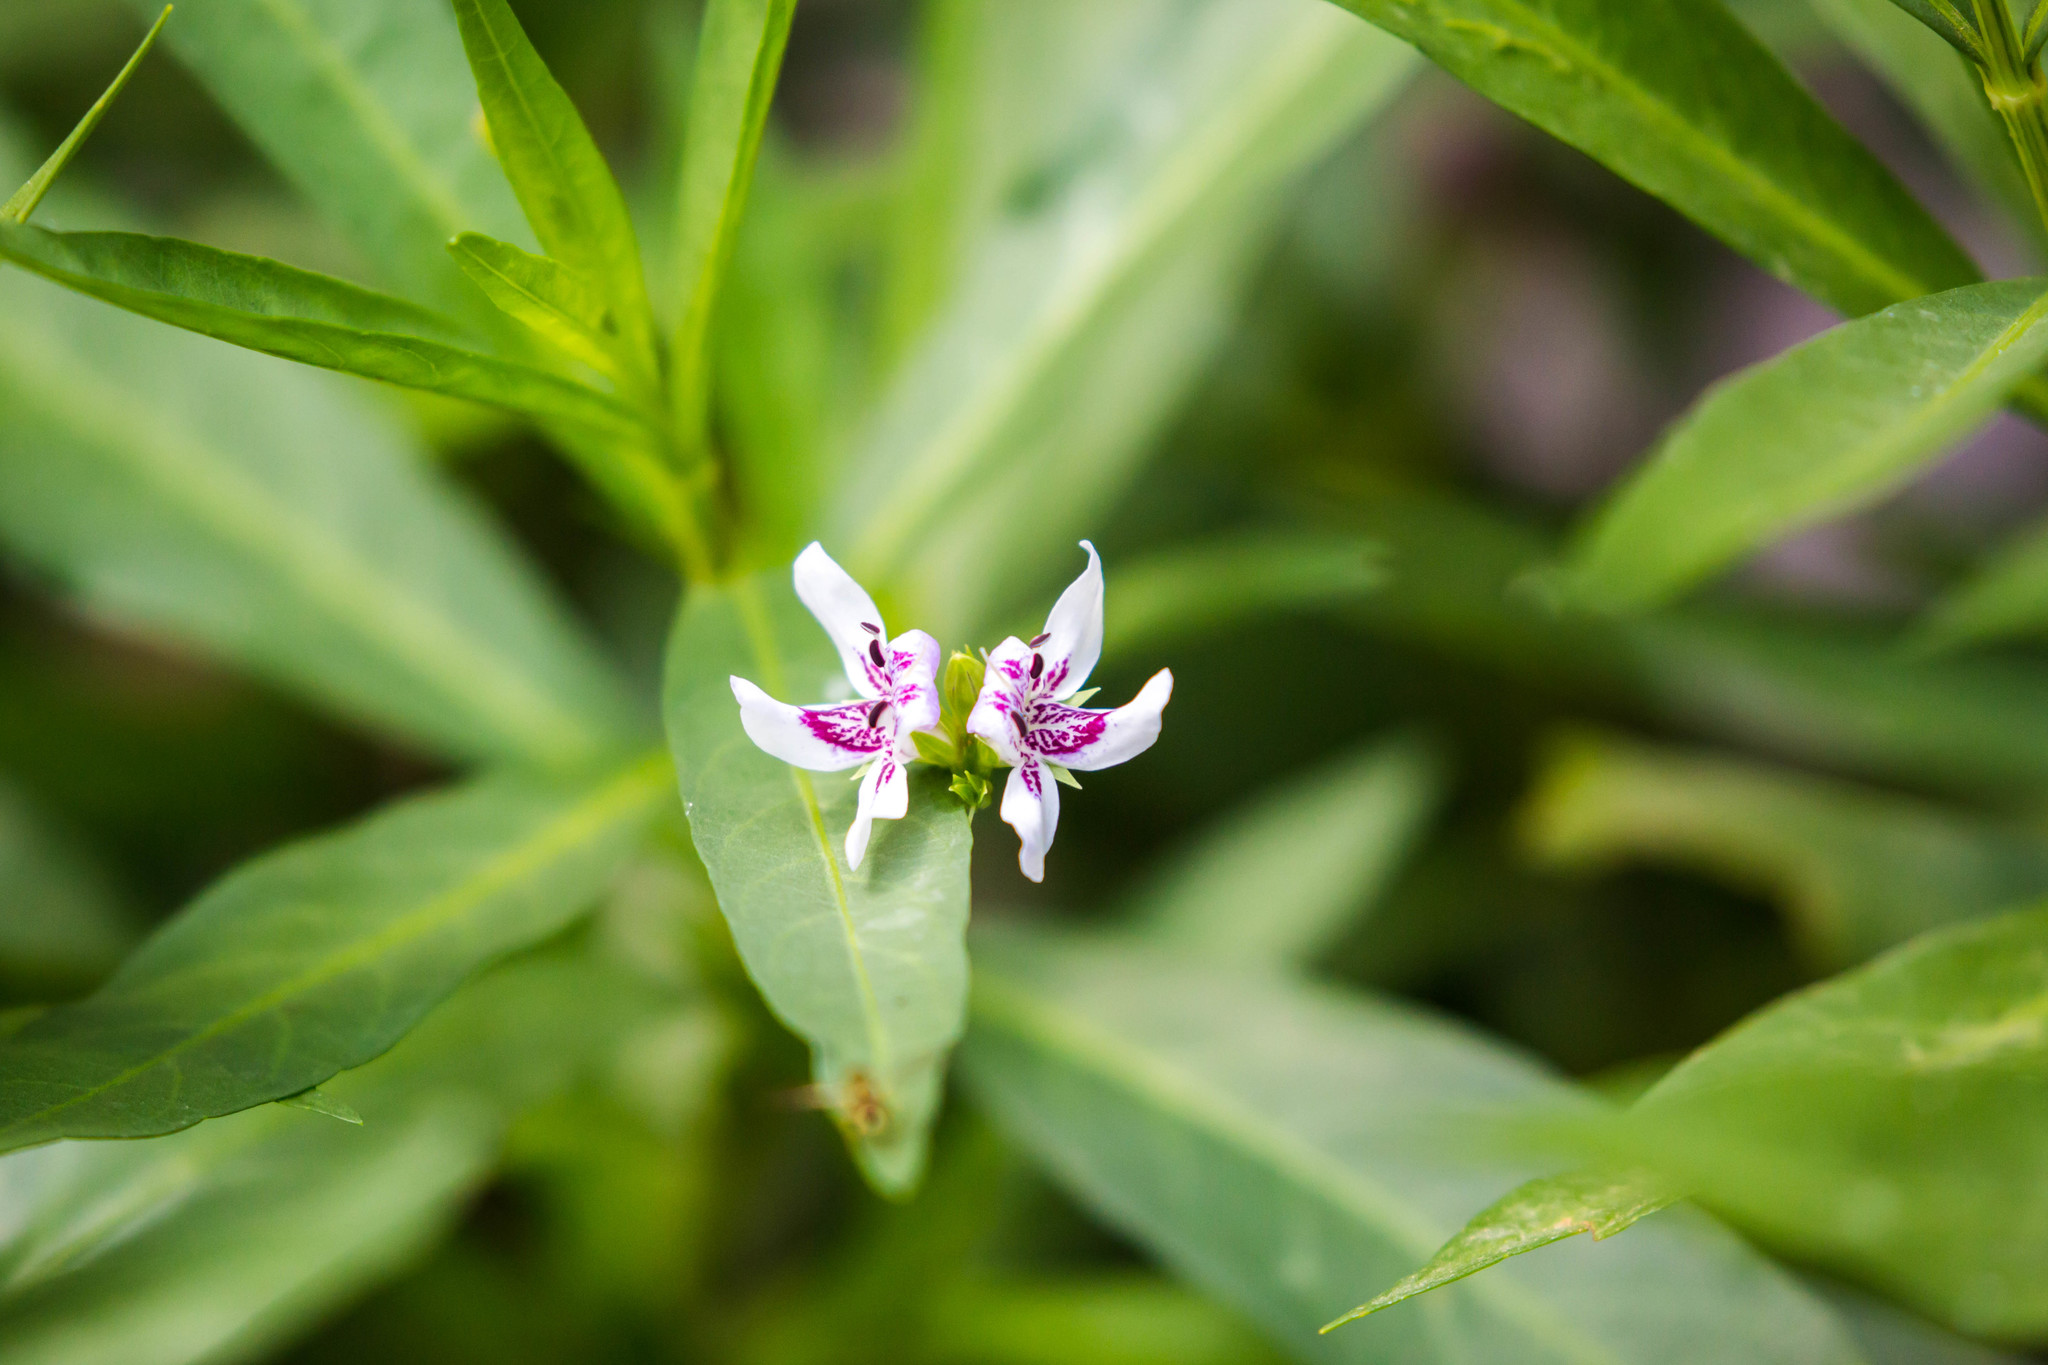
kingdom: Plantae
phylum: Tracheophyta
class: Magnoliopsida
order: Lamiales
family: Acanthaceae
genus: Dianthera
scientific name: Dianthera americana
